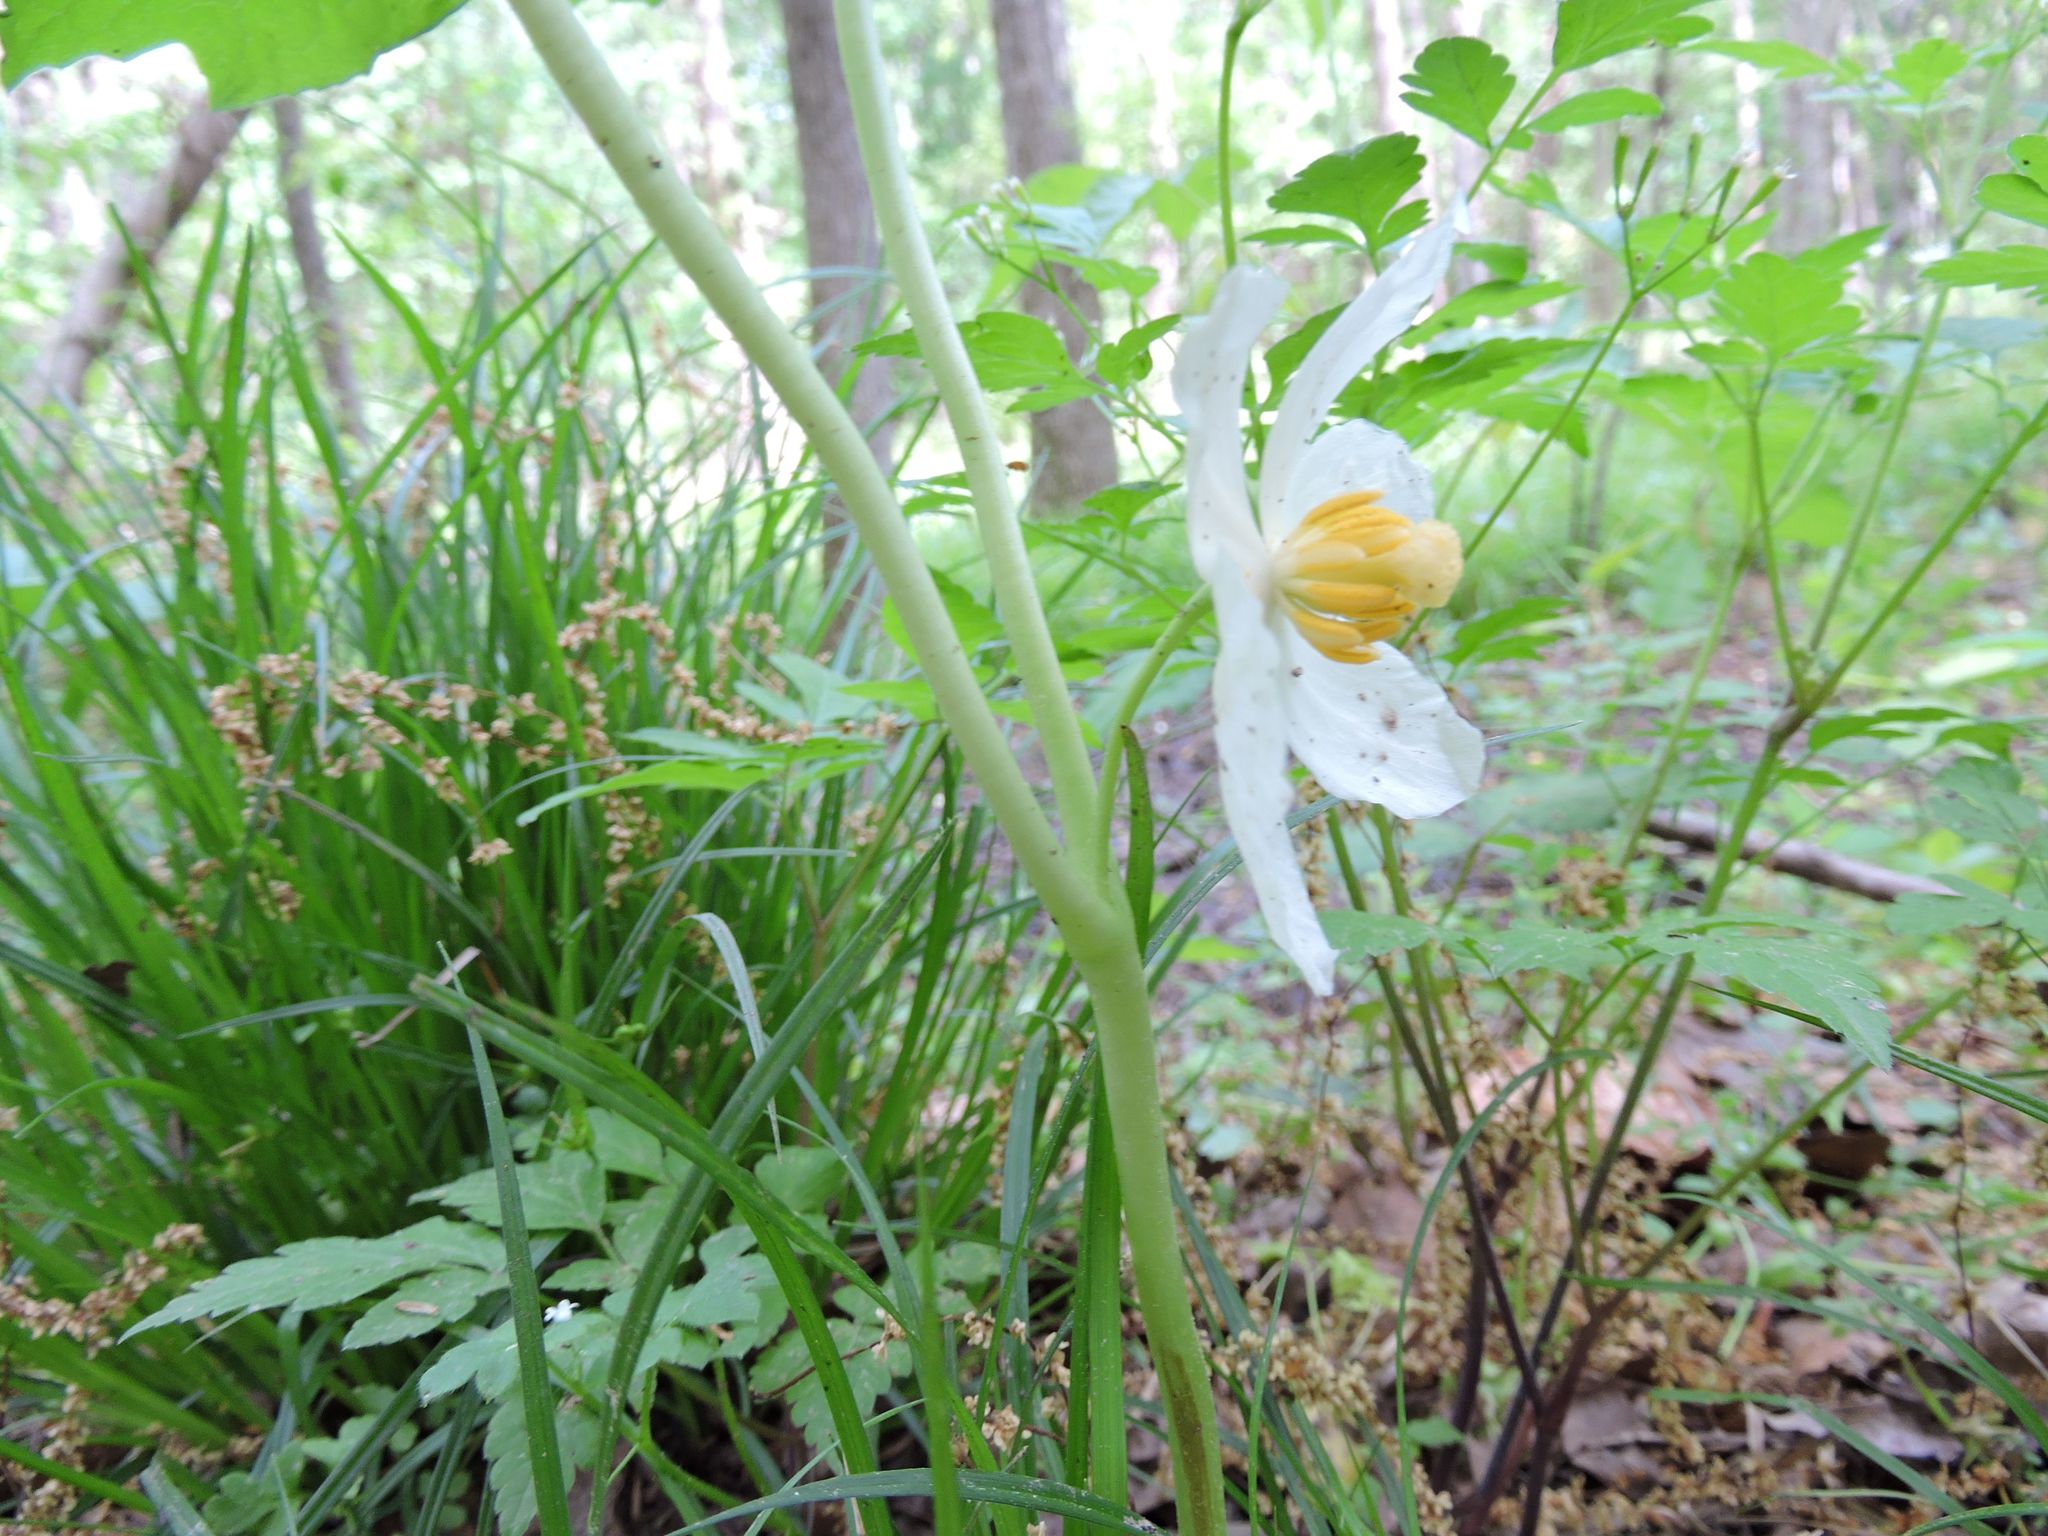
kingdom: Plantae
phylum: Tracheophyta
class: Magnoliopsida
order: Ranunculales
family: Berberidaceae
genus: Podophyllum
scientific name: Podophyllum peltatum
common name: Wild mandrake
